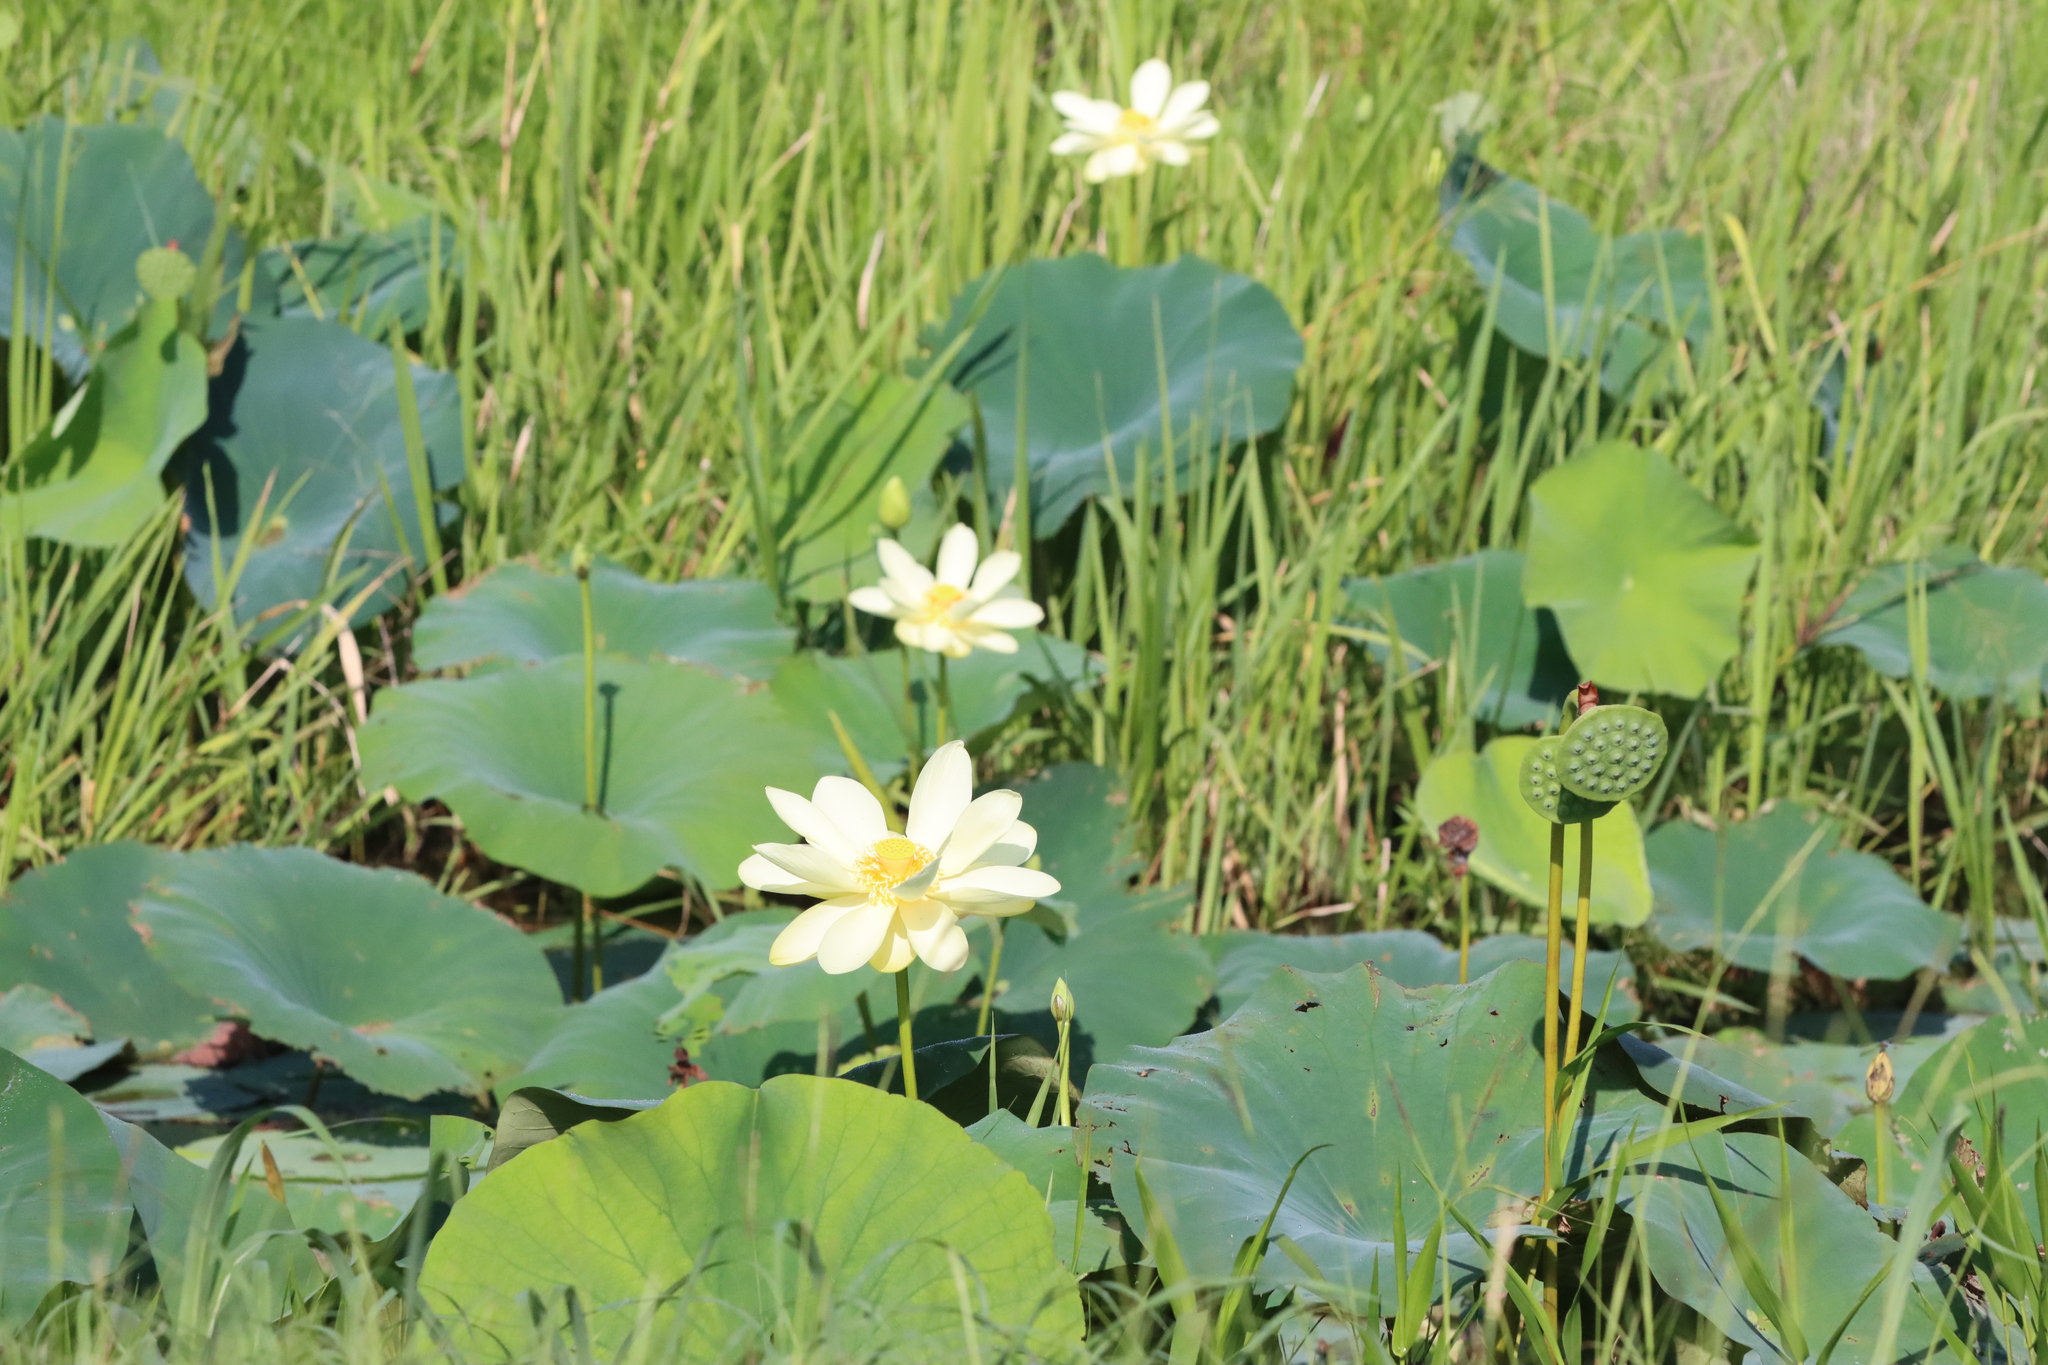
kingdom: Plantae
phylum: Tracheophyta
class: Magnoliopsida
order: Proteales
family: Nelumbonaceae
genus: Nelumbo
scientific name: Nelumbo lutea
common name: American lotus
